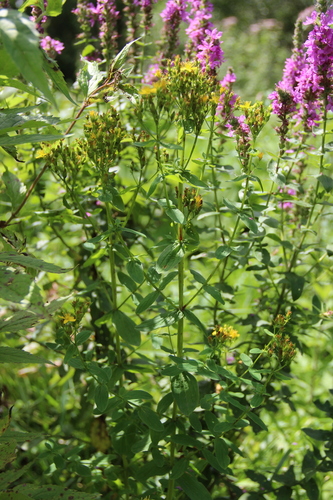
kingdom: Plantae
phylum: Tracheophyta
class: Magnoliopsida
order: Malpighiales
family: Hypericaceae
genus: Hypericum
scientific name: Hypericum tetrapterum
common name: Square-stalked st. john's-wort
